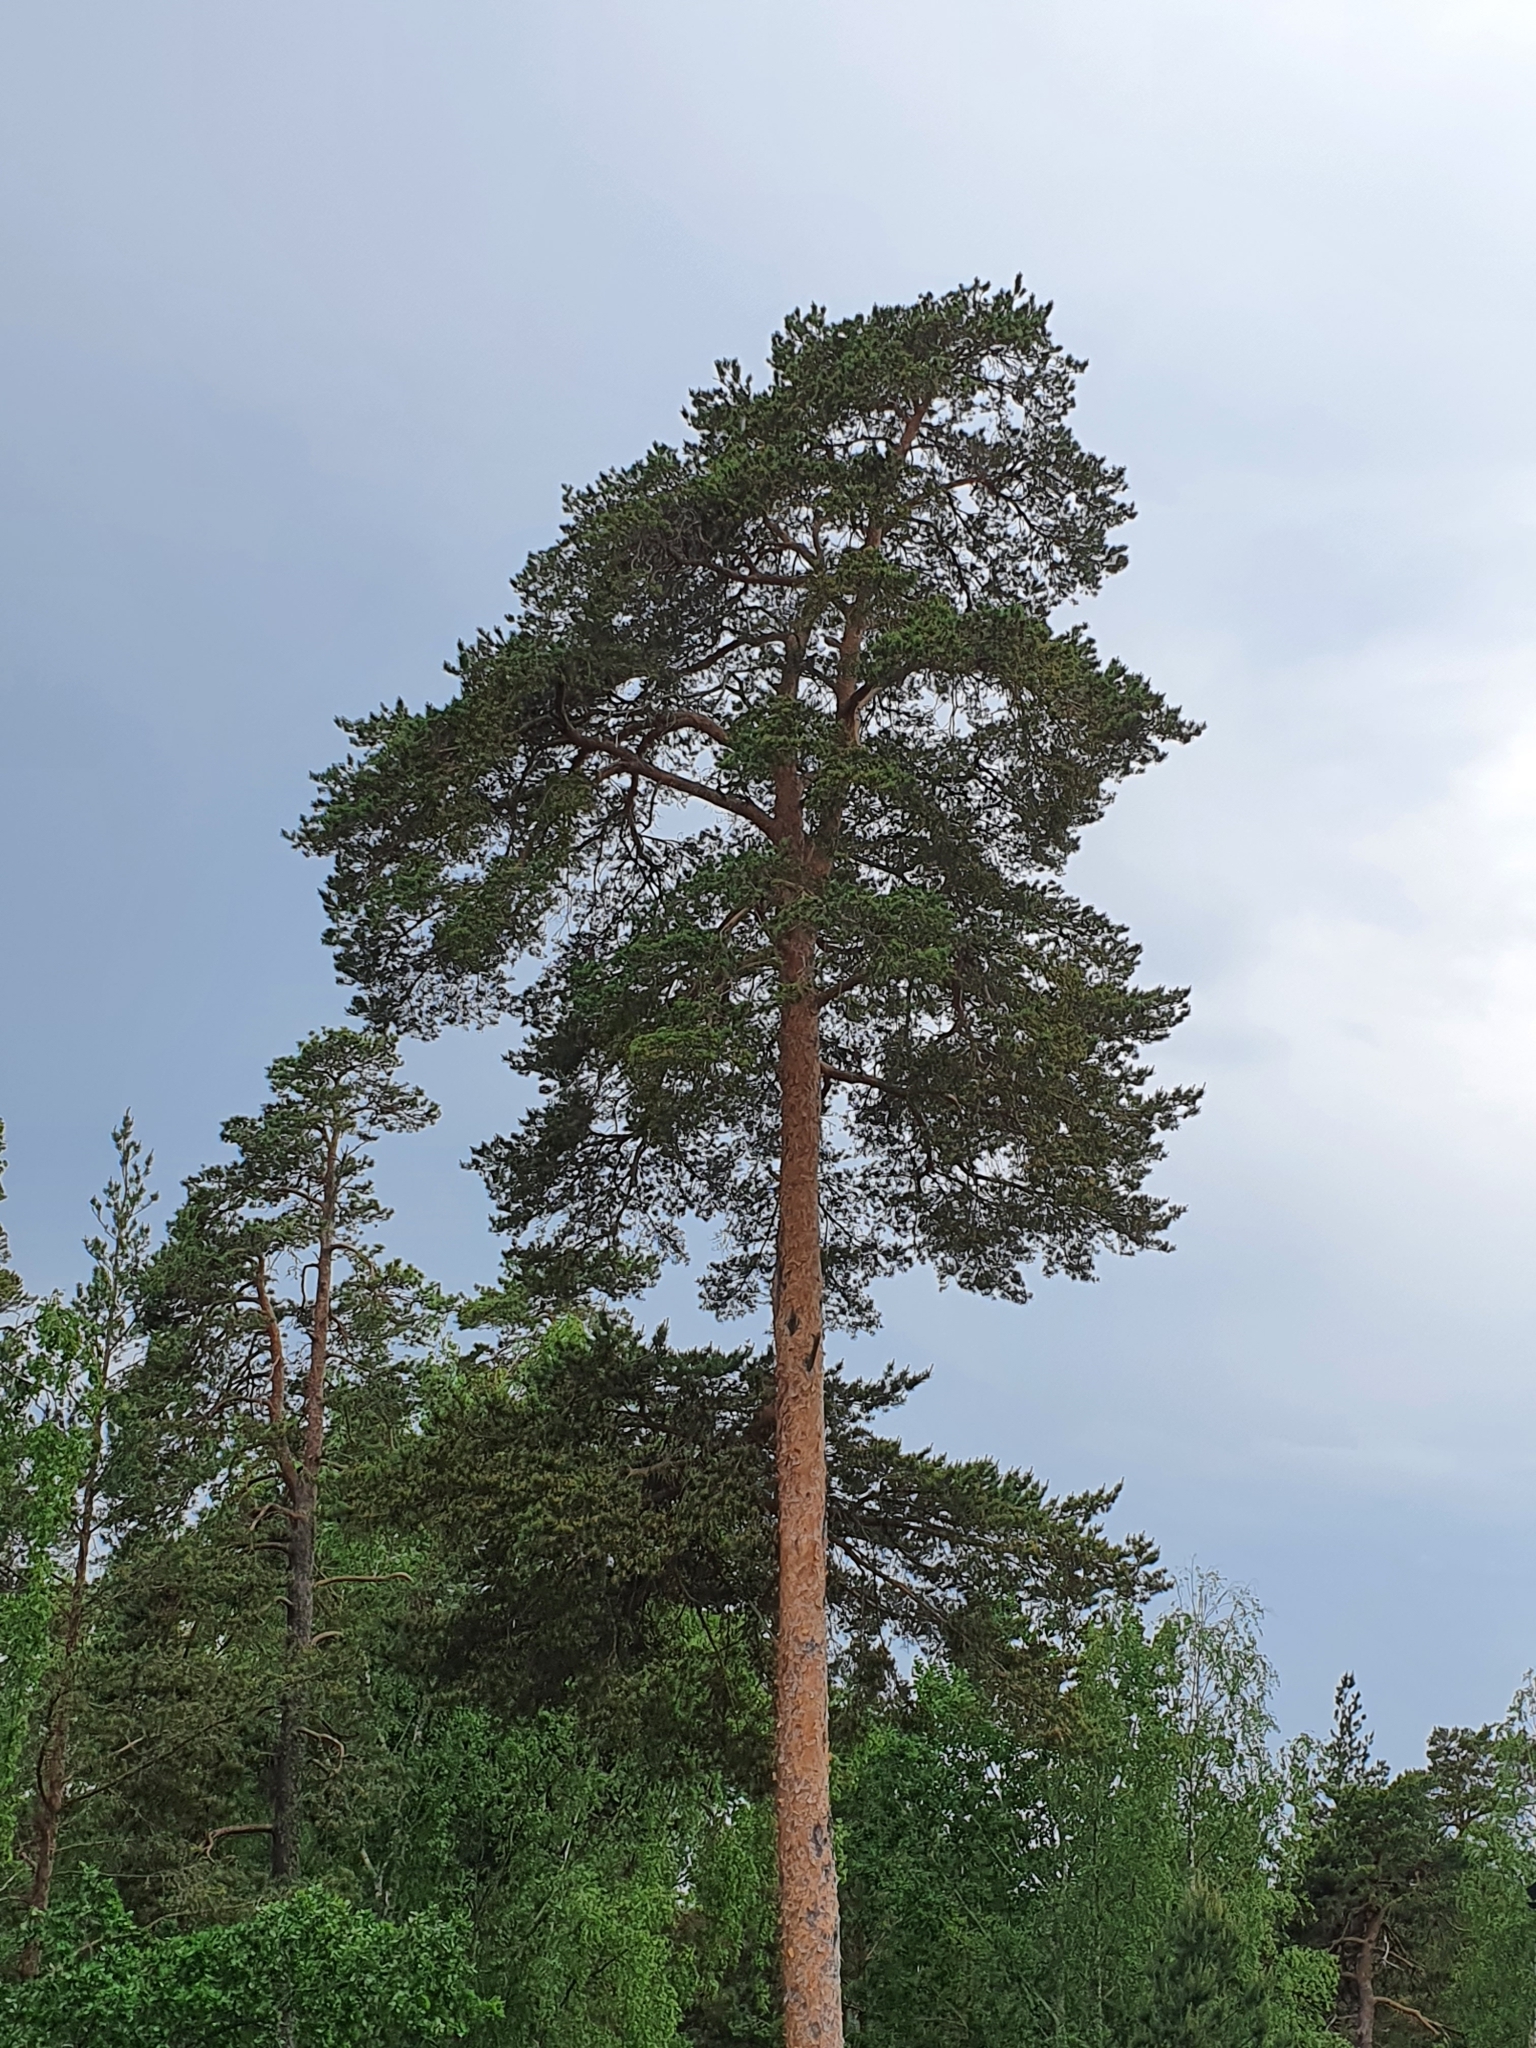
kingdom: Plantae
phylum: Tracheophyta
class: Pinopsida
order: Pinales
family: Pinaceae
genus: Pinus
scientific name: Pinus sylvestris
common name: Scots pine
